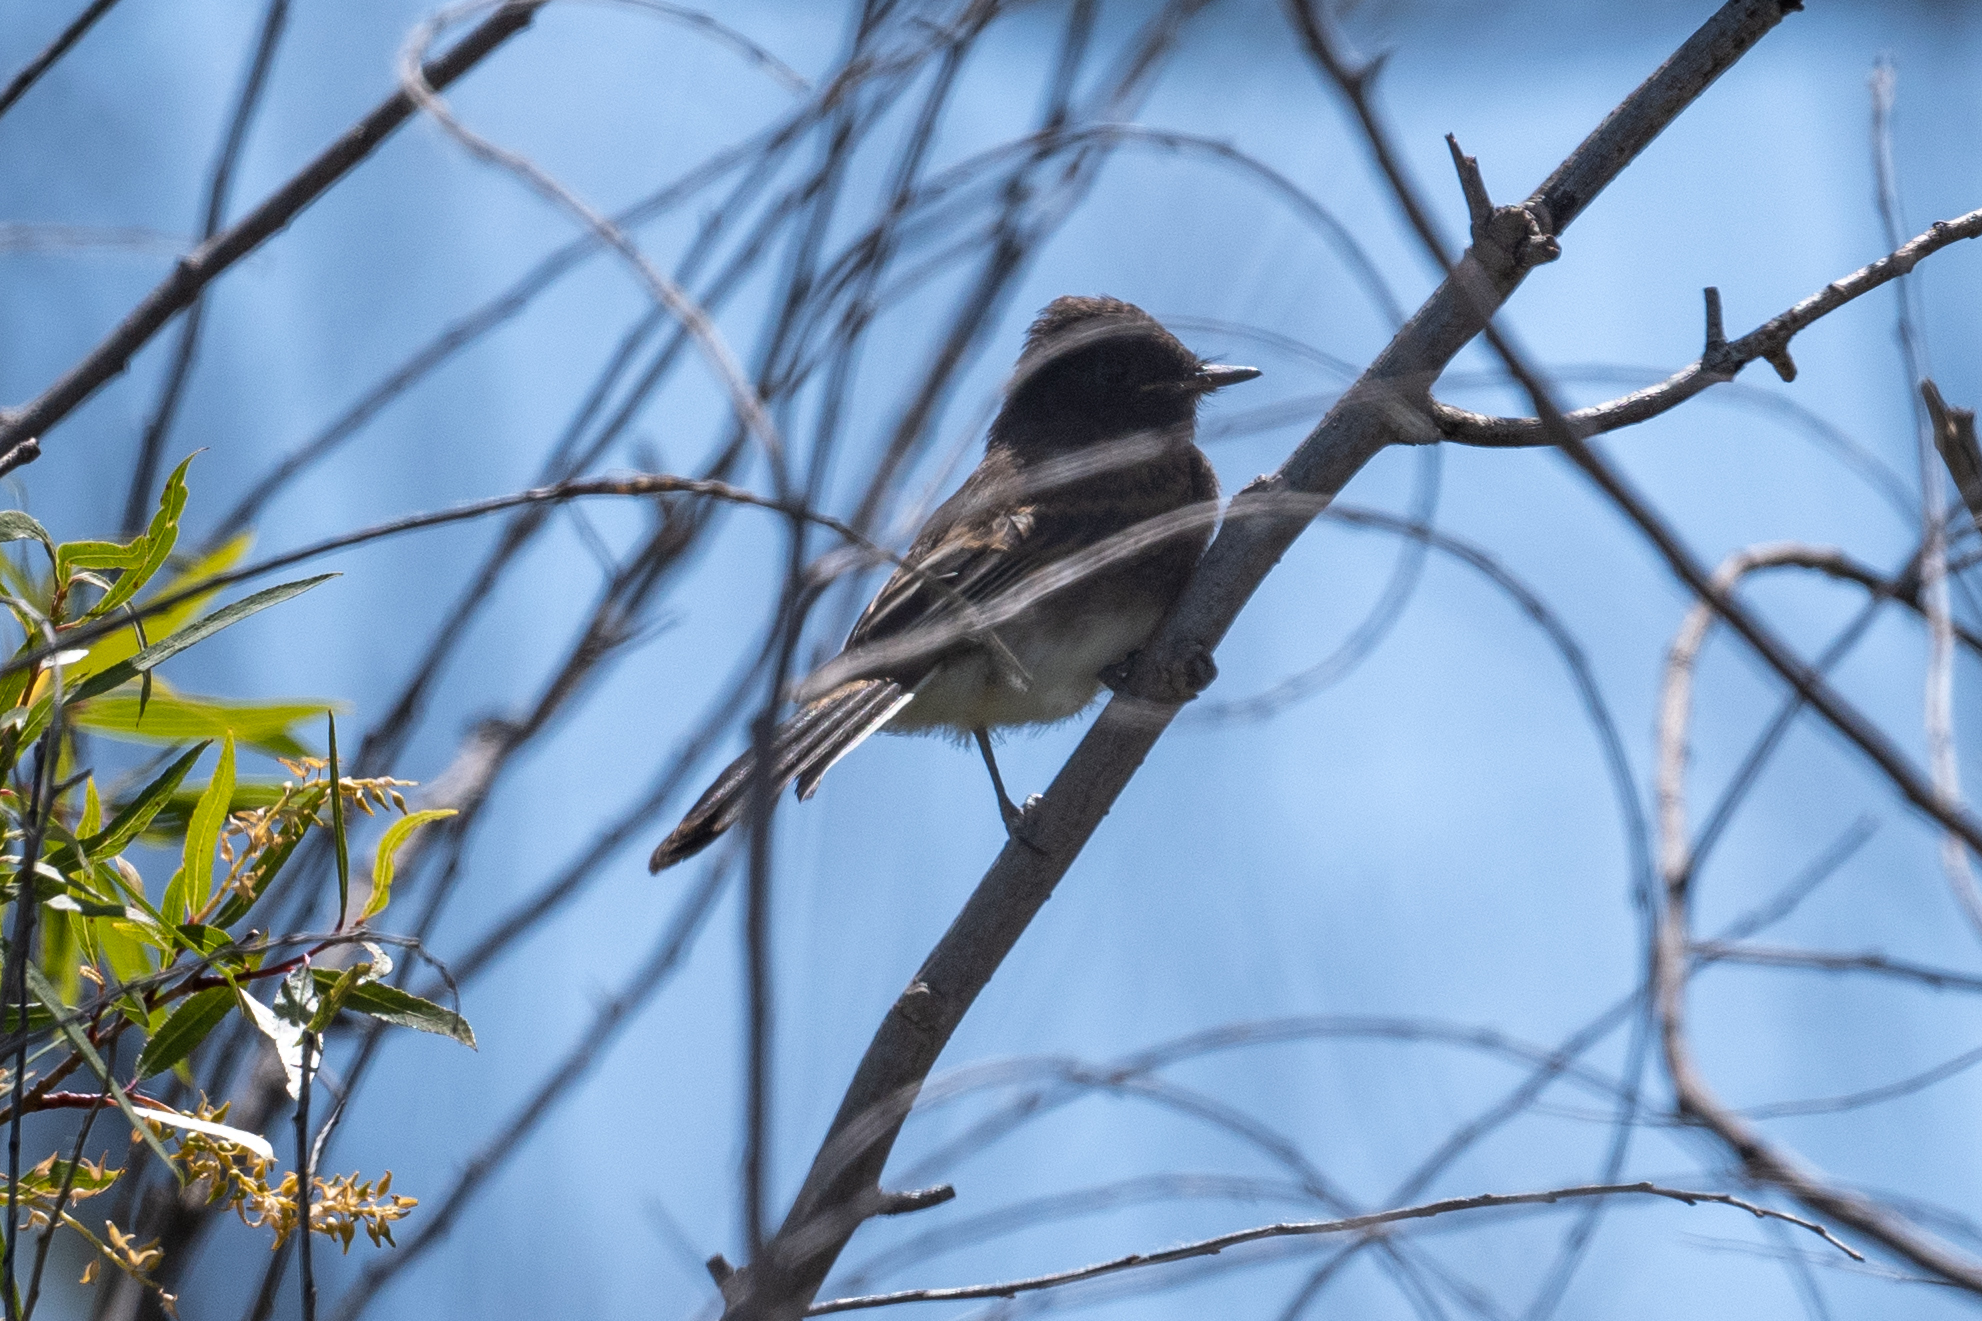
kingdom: Animalia
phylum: Chordata
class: Aves
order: Passeriformes
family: Tyrannidae
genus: Sayornis
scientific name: Sayornis nigricans
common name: Black phoebe
